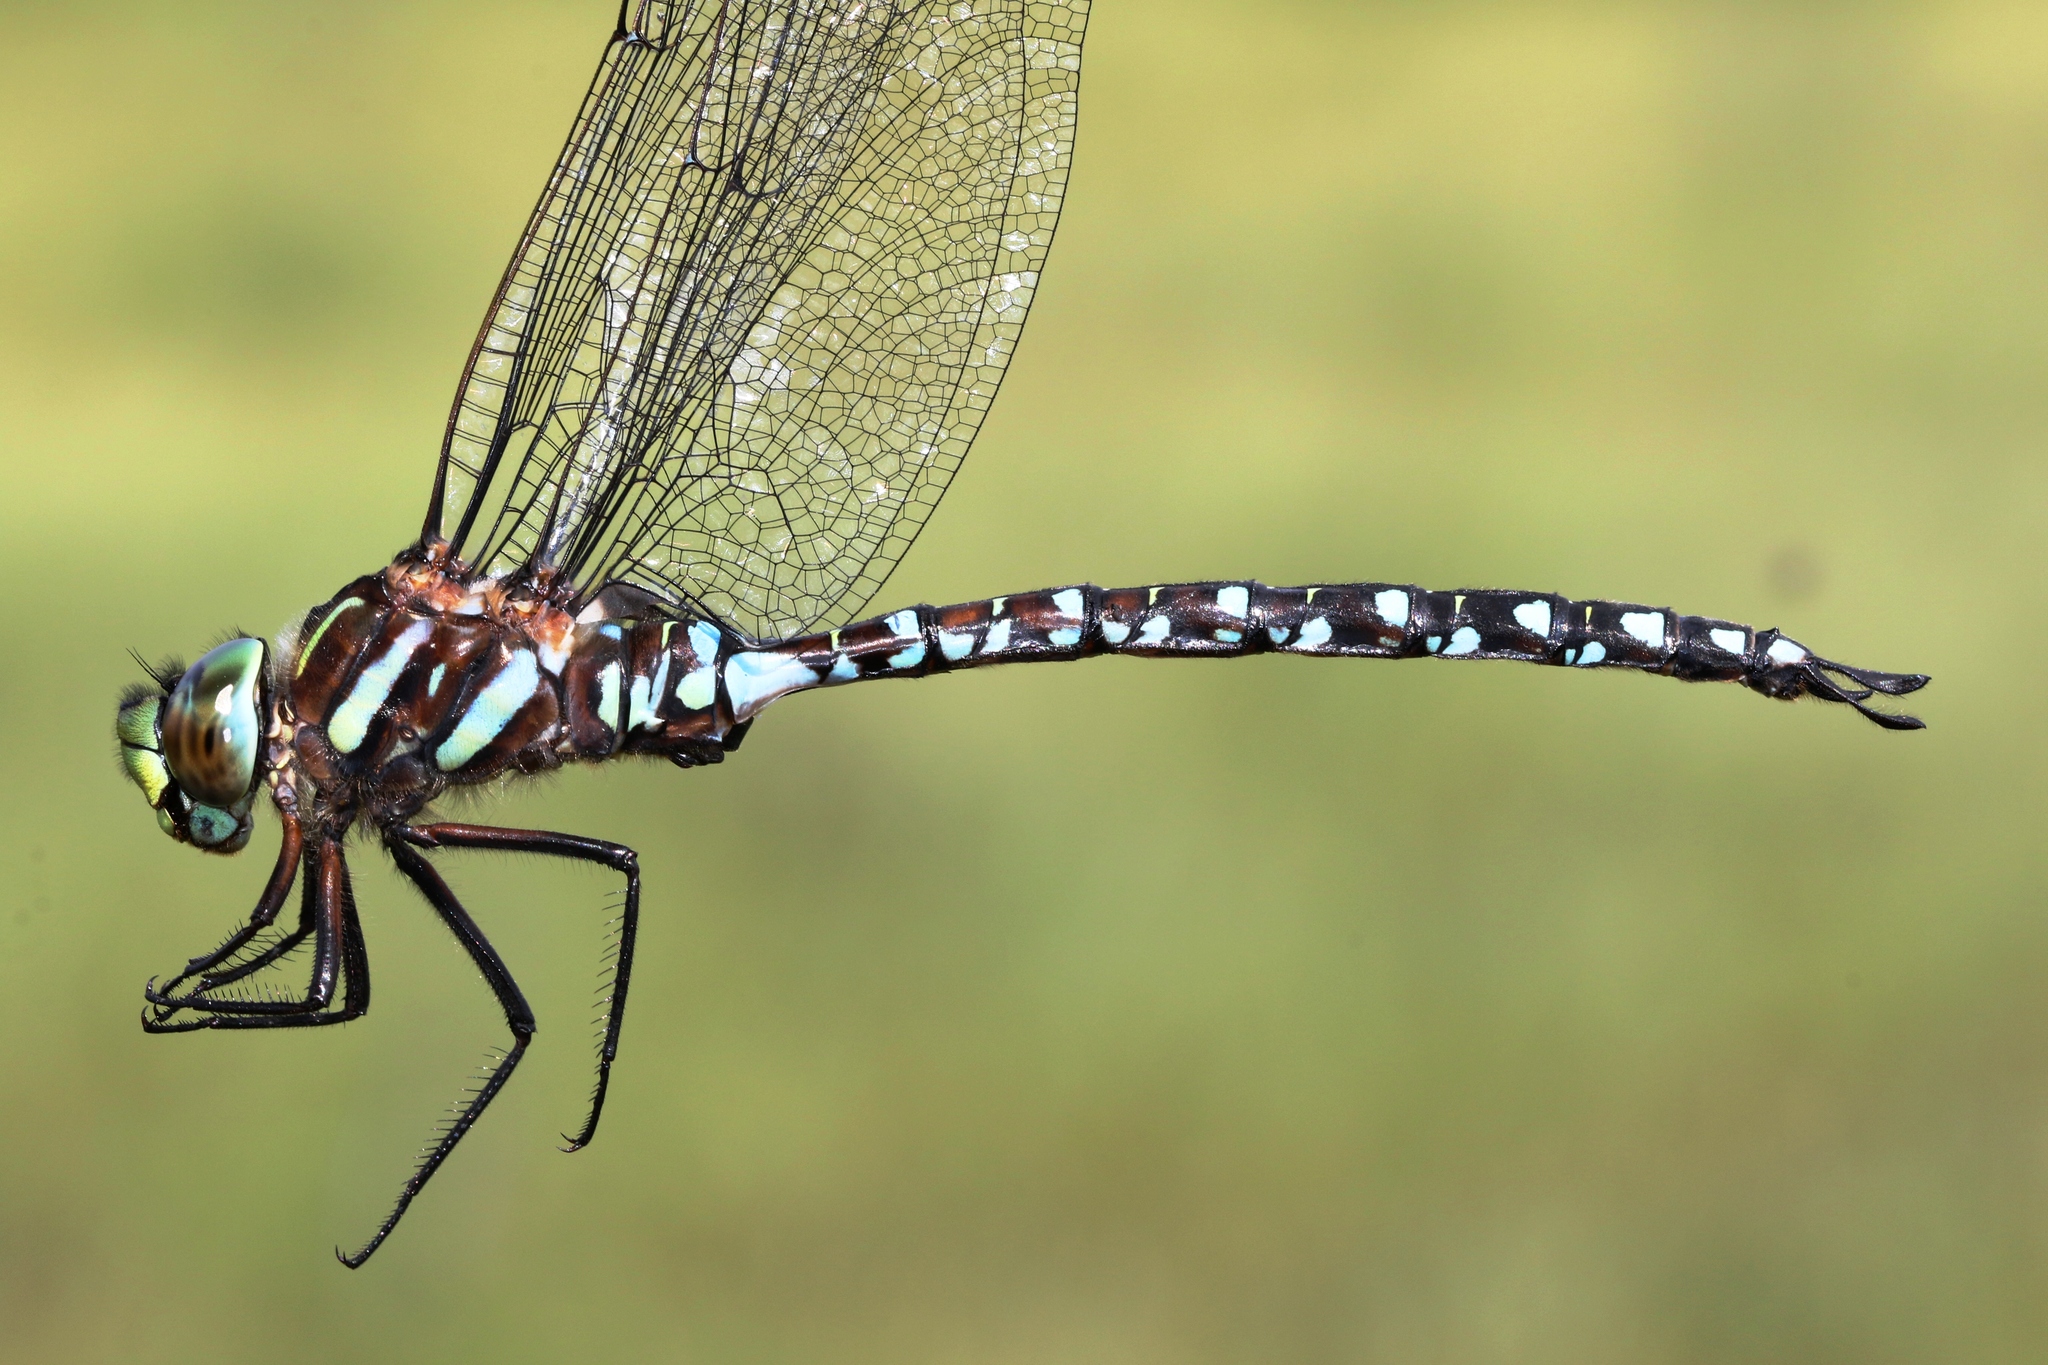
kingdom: Animalia
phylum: Arthropoda
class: Insecta
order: Odonata
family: Aeshnidae
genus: Aeshna
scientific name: Aeshna juncea
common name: Moorland hawker
